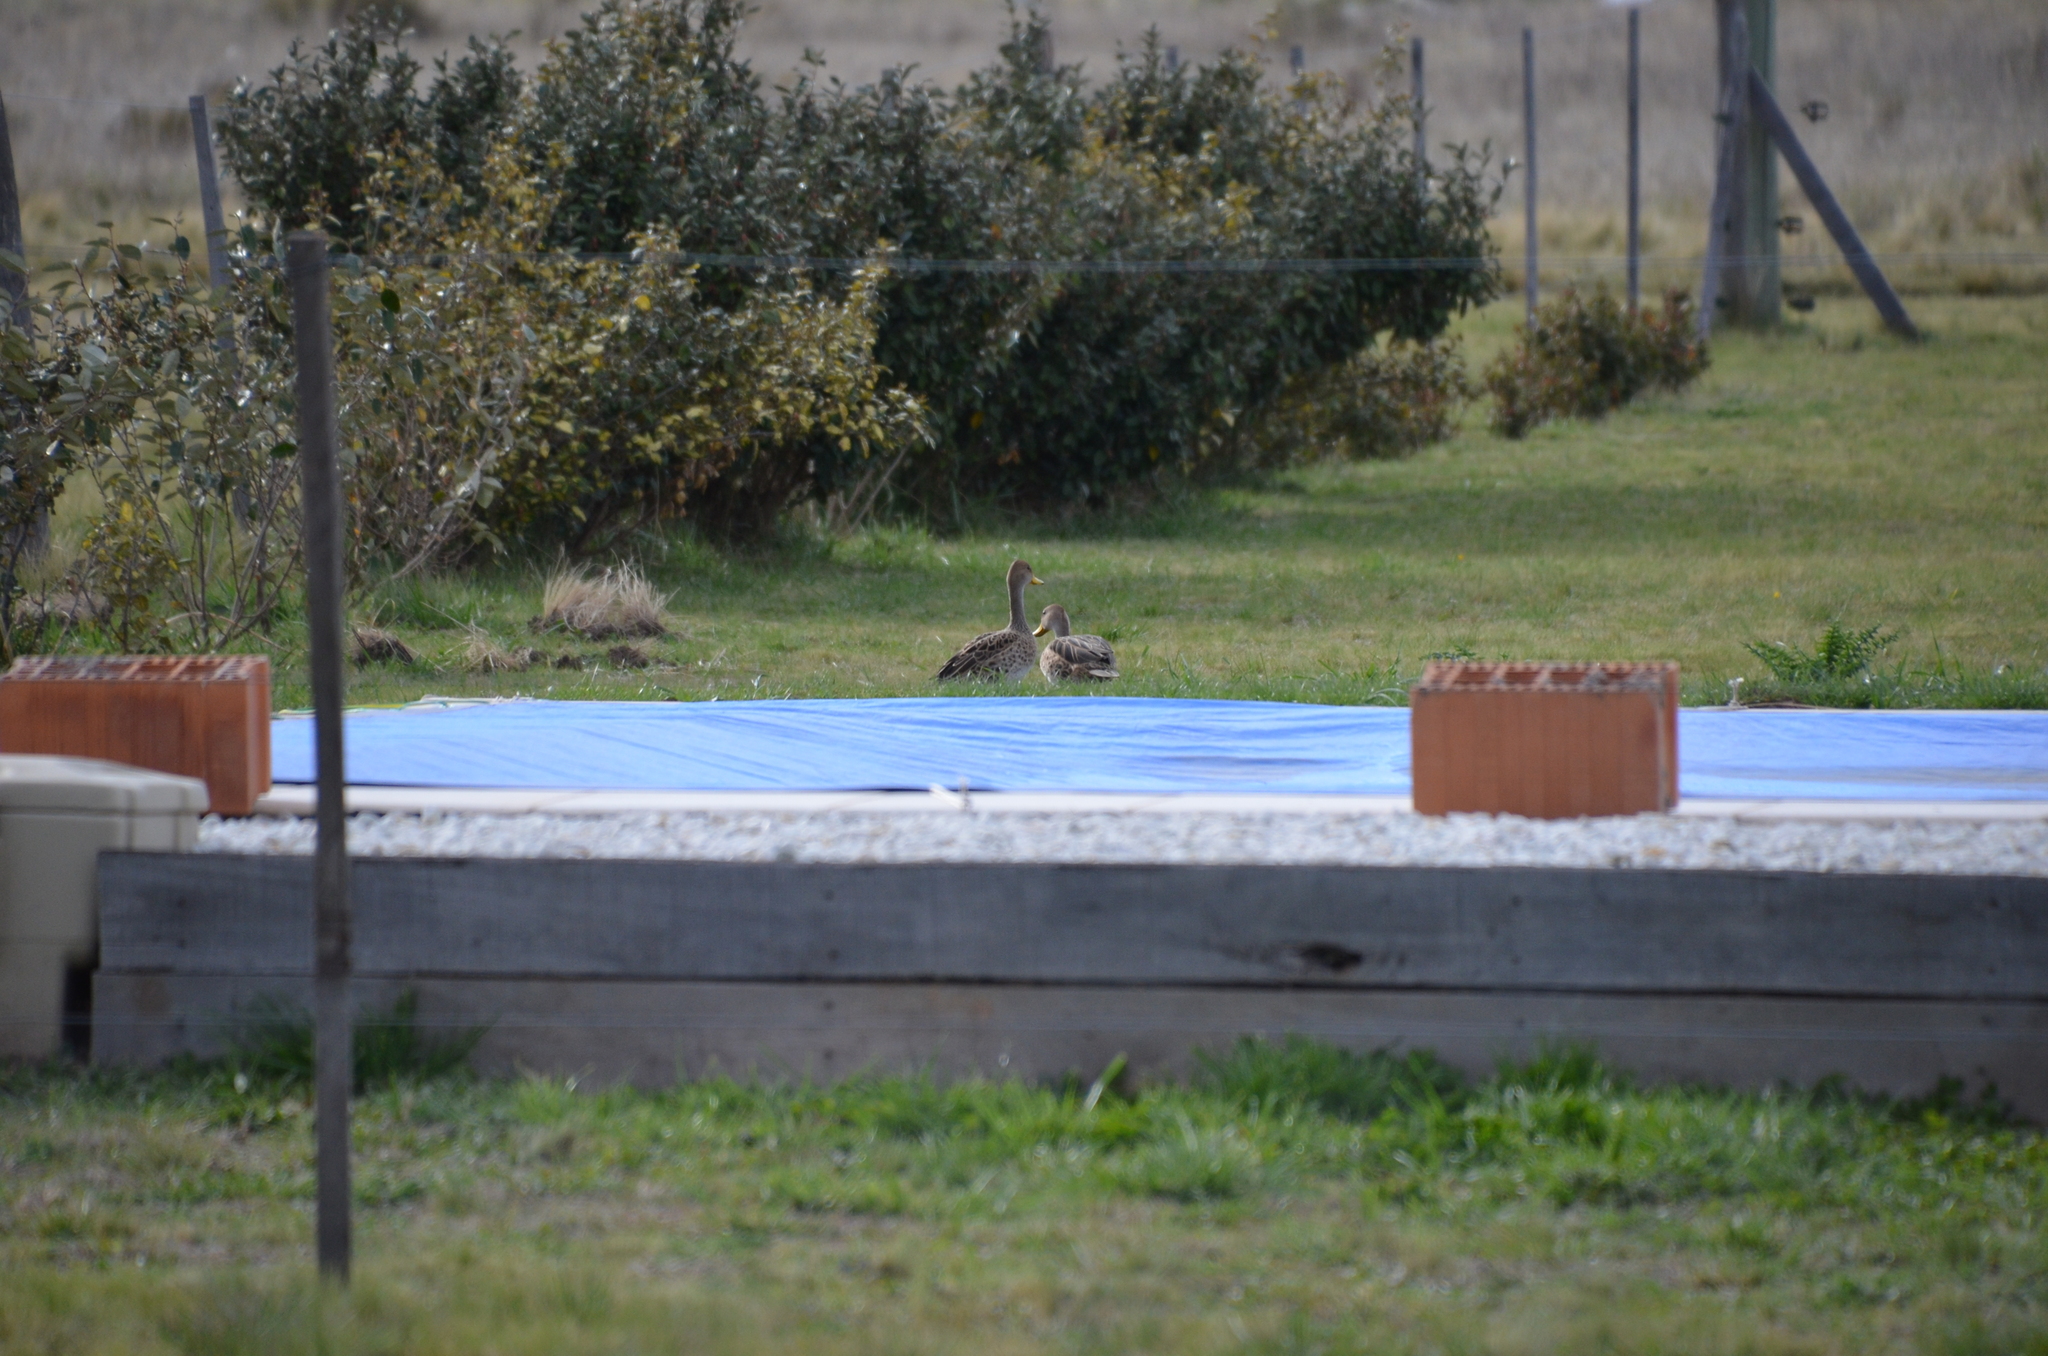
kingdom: Animalia
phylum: Chordata
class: Aves
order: Anseriformes
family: Anatidae
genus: Anas
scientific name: Anas georgica
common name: Yellow-billed pintail
